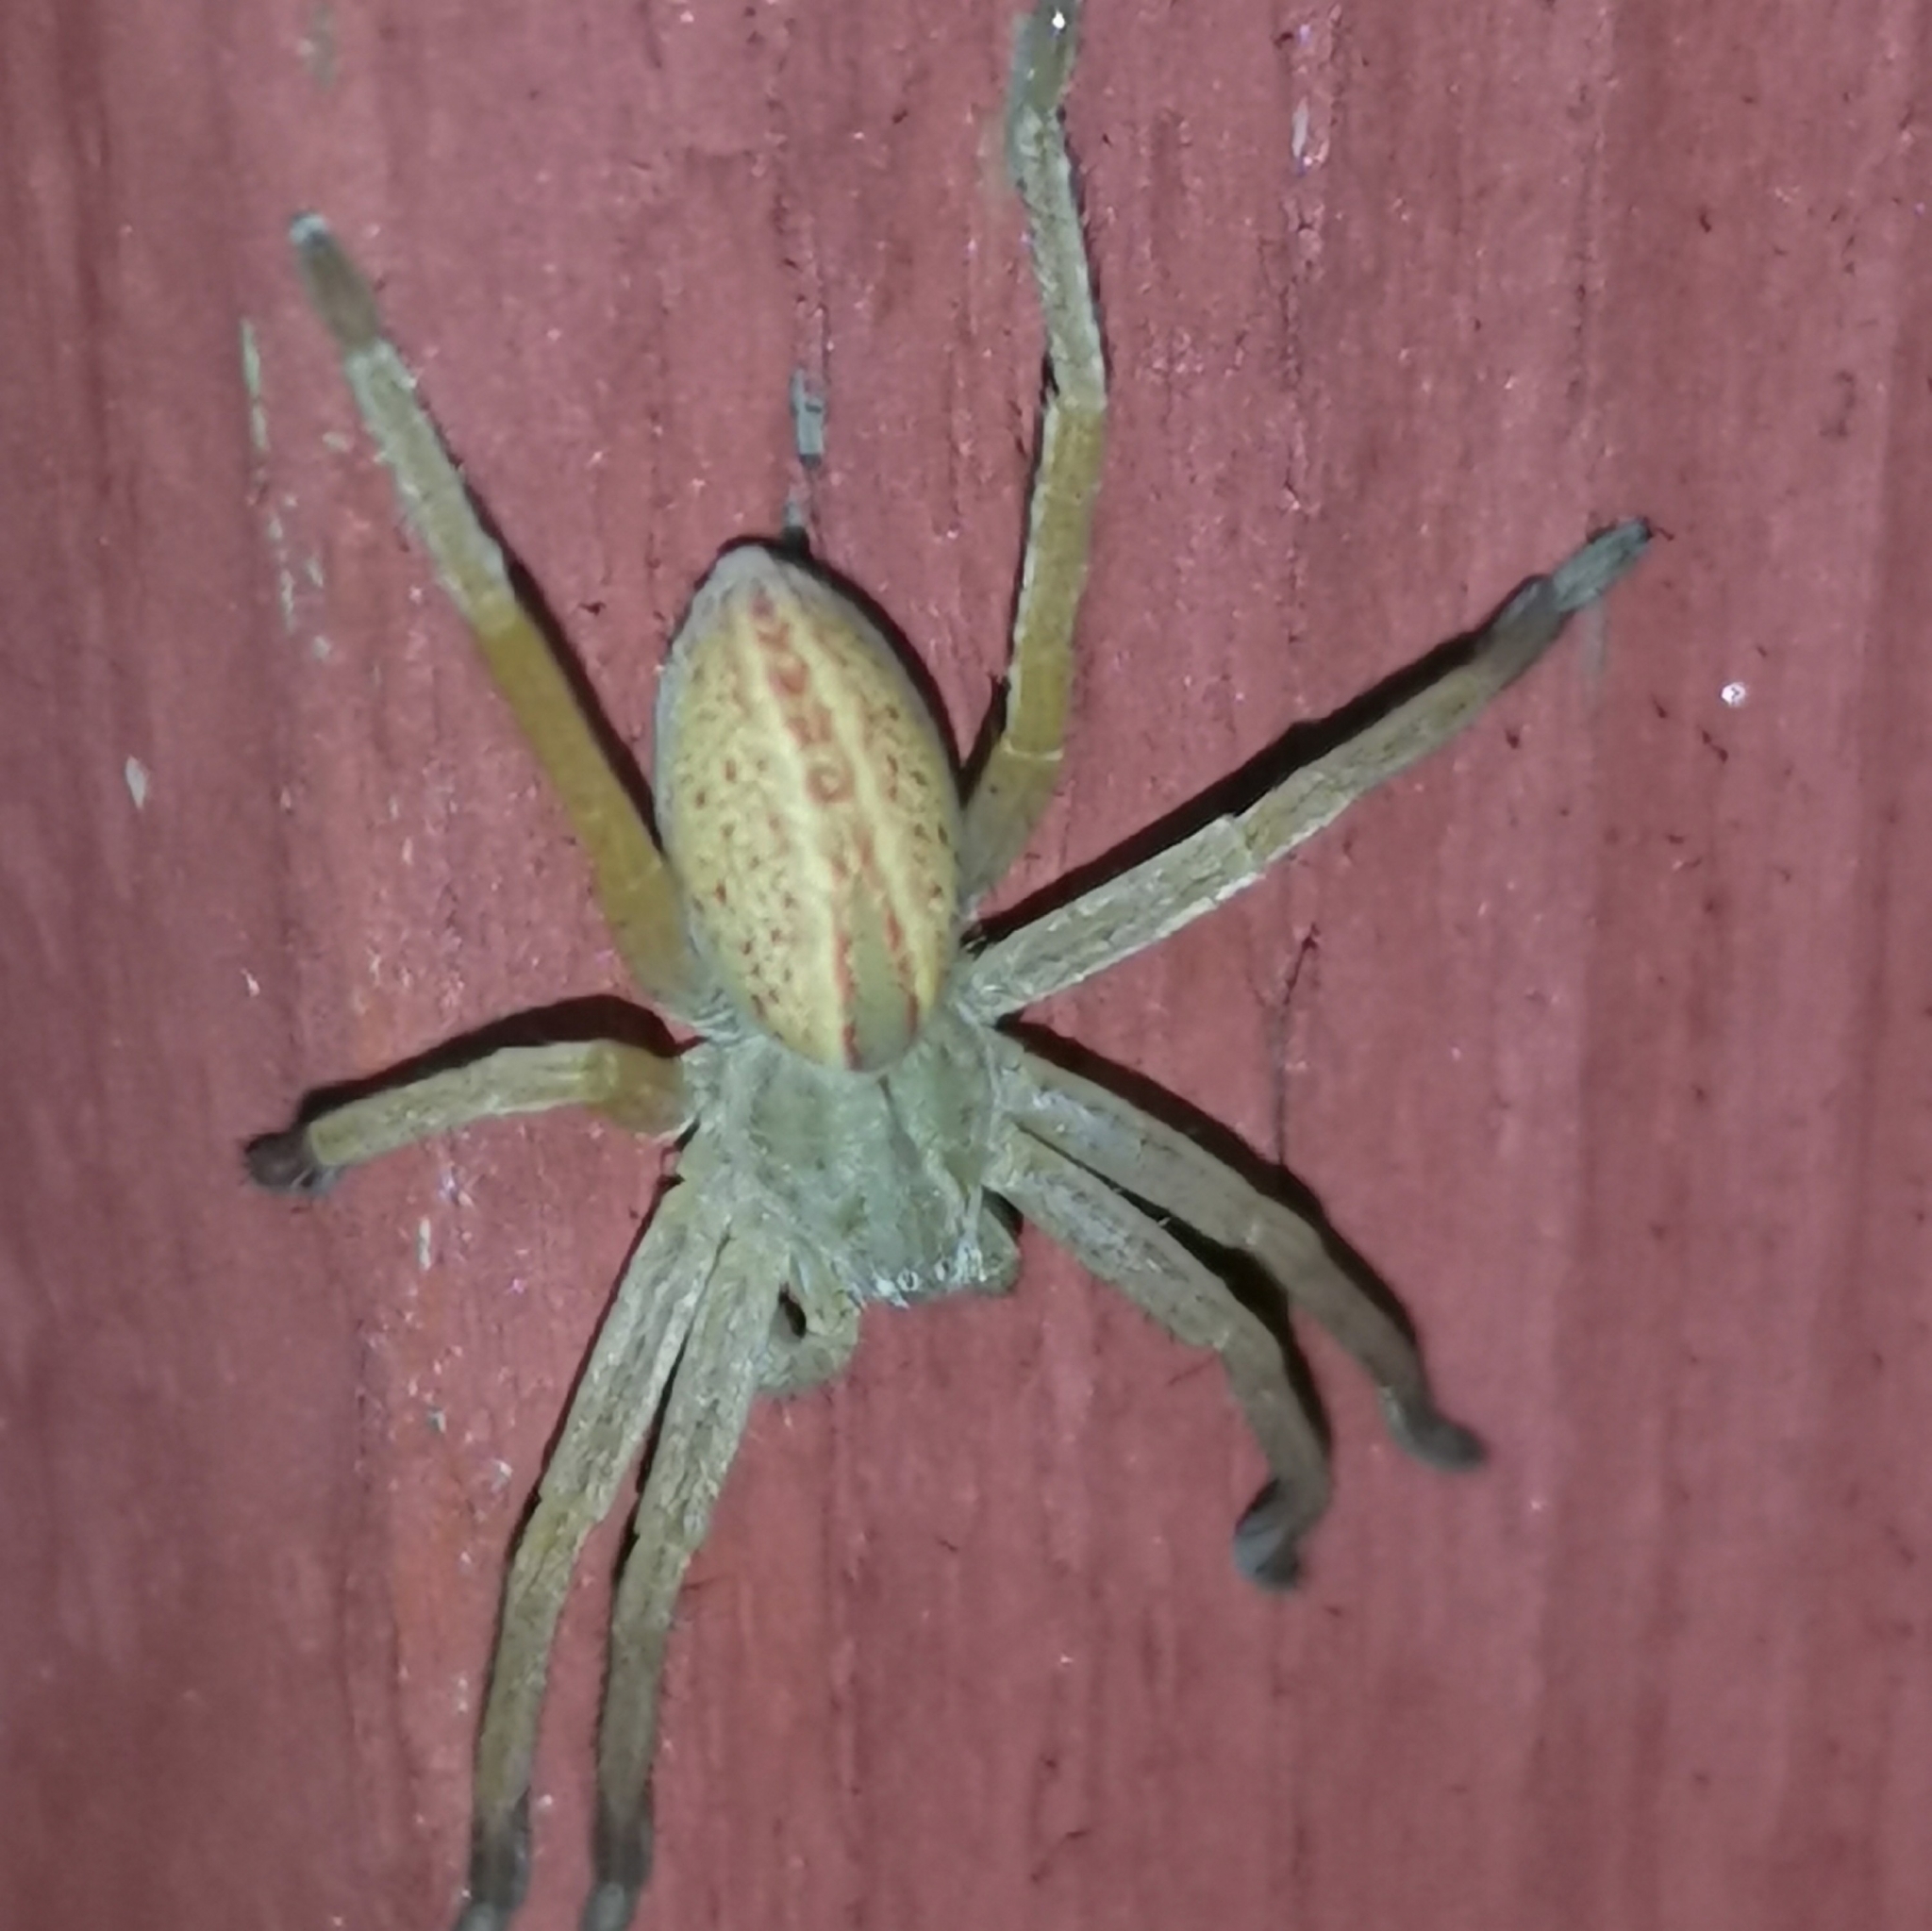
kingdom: Animalia
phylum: Arthropoda
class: Arachnida
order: Araneae
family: Sparassidae
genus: Micrommata
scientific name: Micrommata virescens
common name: Green spider
